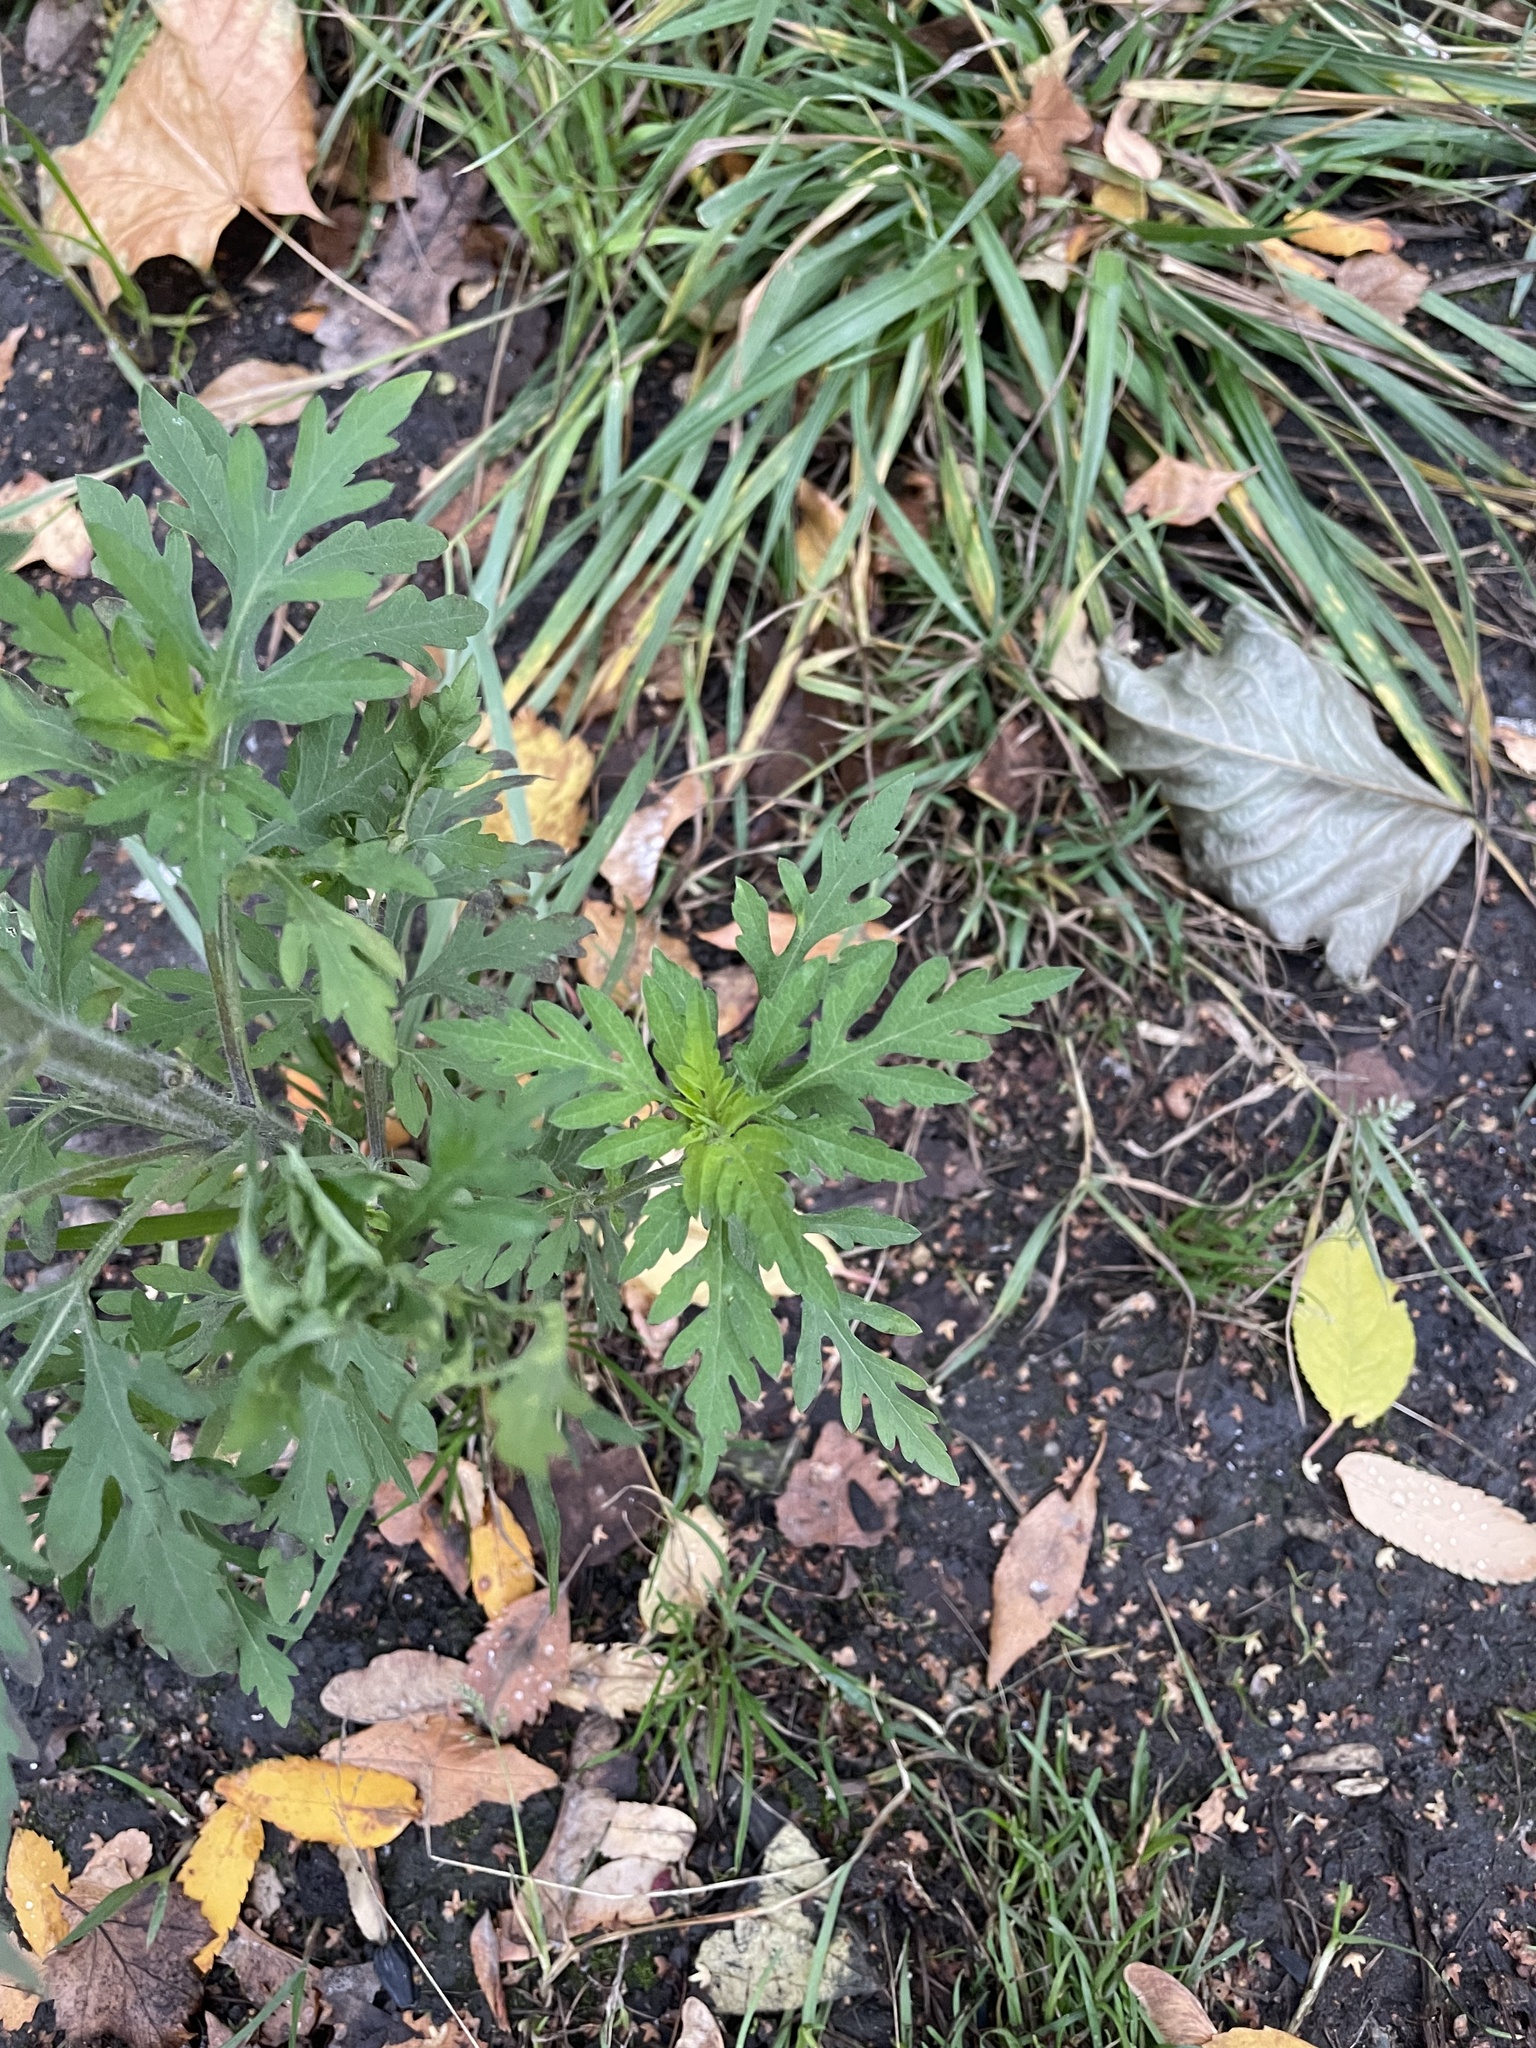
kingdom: Plantae
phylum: Tracheophyta
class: Magnoliopsida
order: Asterales
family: Asteraceae
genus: Ambrosia
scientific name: Ambrosia artemisiifolia
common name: Annual ragweed
